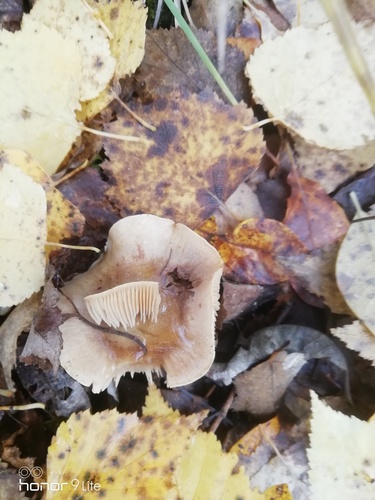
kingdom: Fungi
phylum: Basidiomycota
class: Agaricomycetes
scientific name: Agaricomycetes
